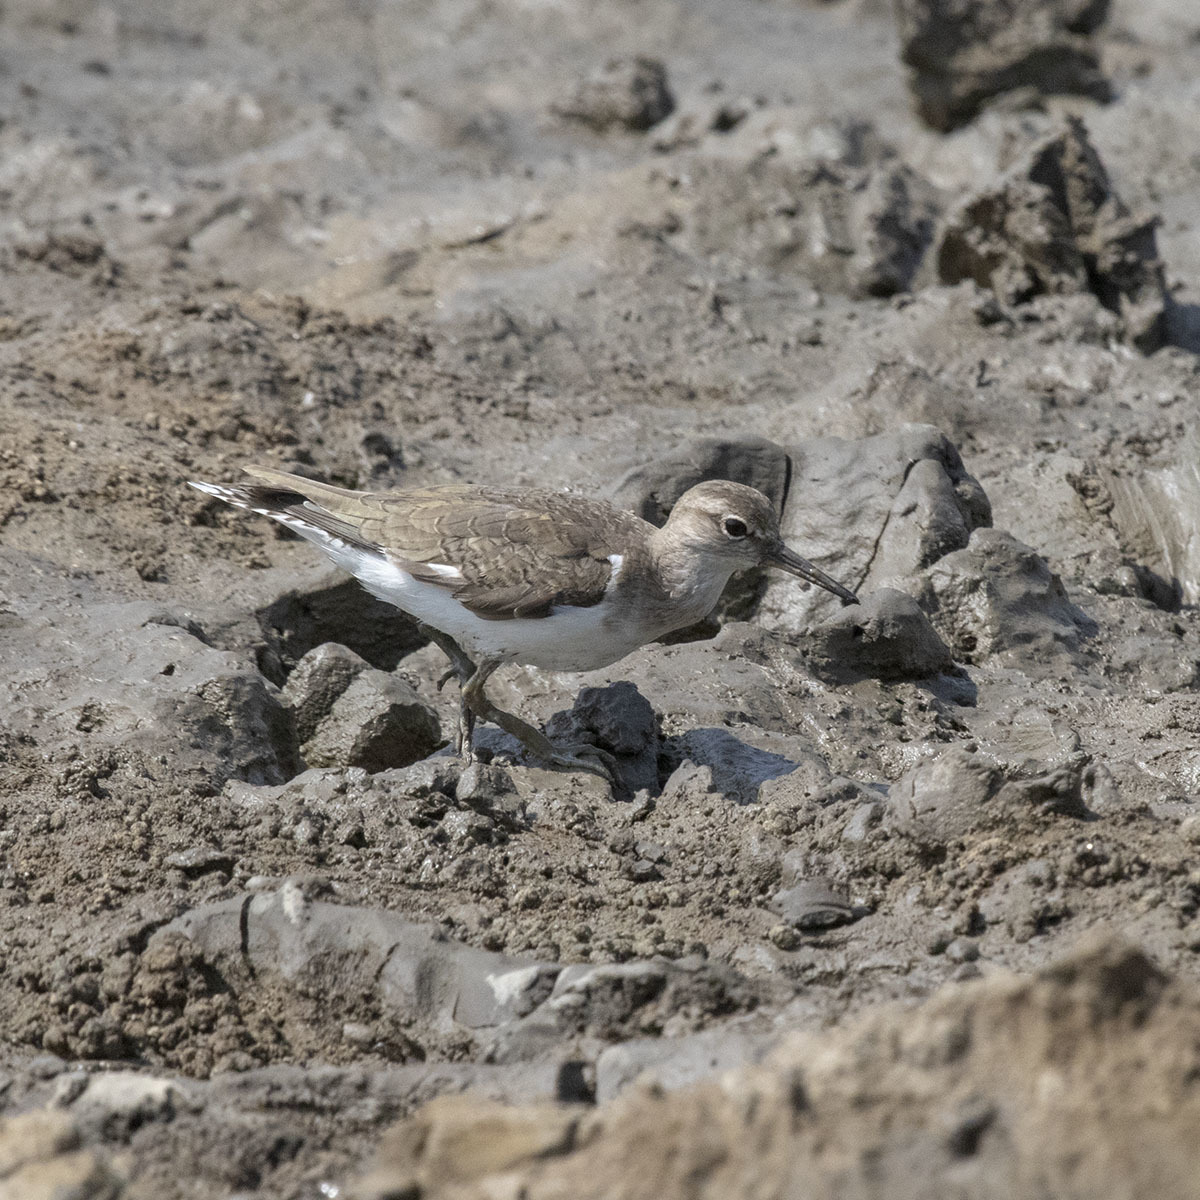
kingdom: Animalia
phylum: Chordata
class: Aves
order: Charadriiformes
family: Scolopacidae
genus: Actitis
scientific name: Actitis hypoleucos
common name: Common sandpiper
